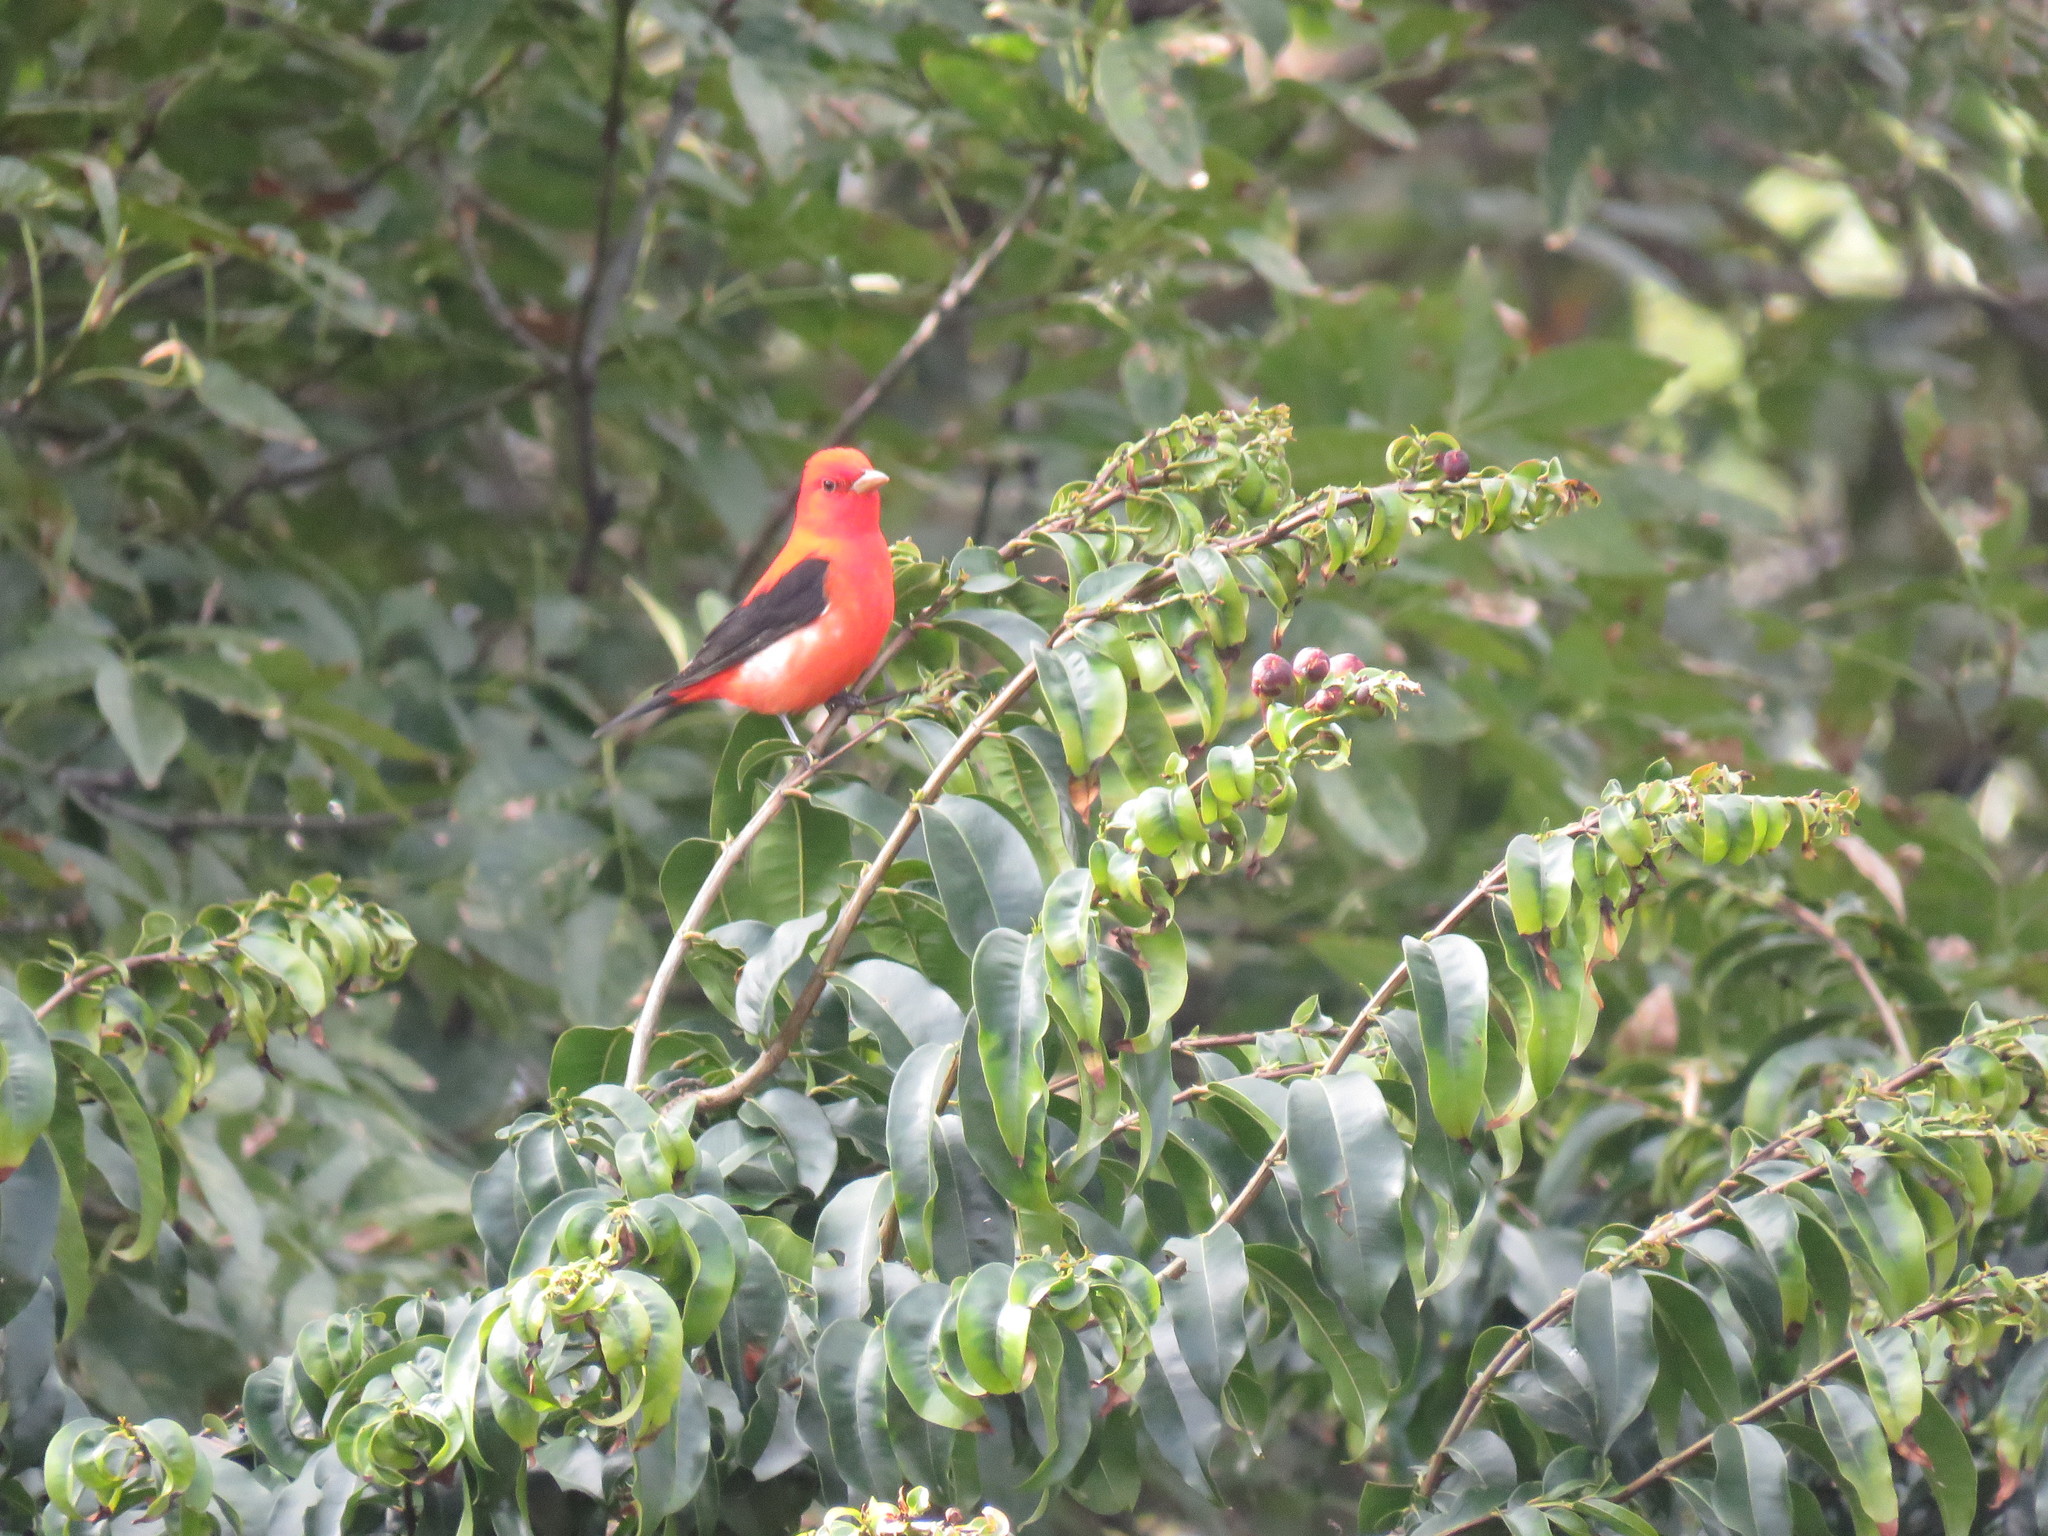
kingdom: Animalia
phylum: Chordata
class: Aves
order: Passeriformes
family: Cardinalidae
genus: Piranga
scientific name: Piranga olivacea
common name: Scarlet tanager
